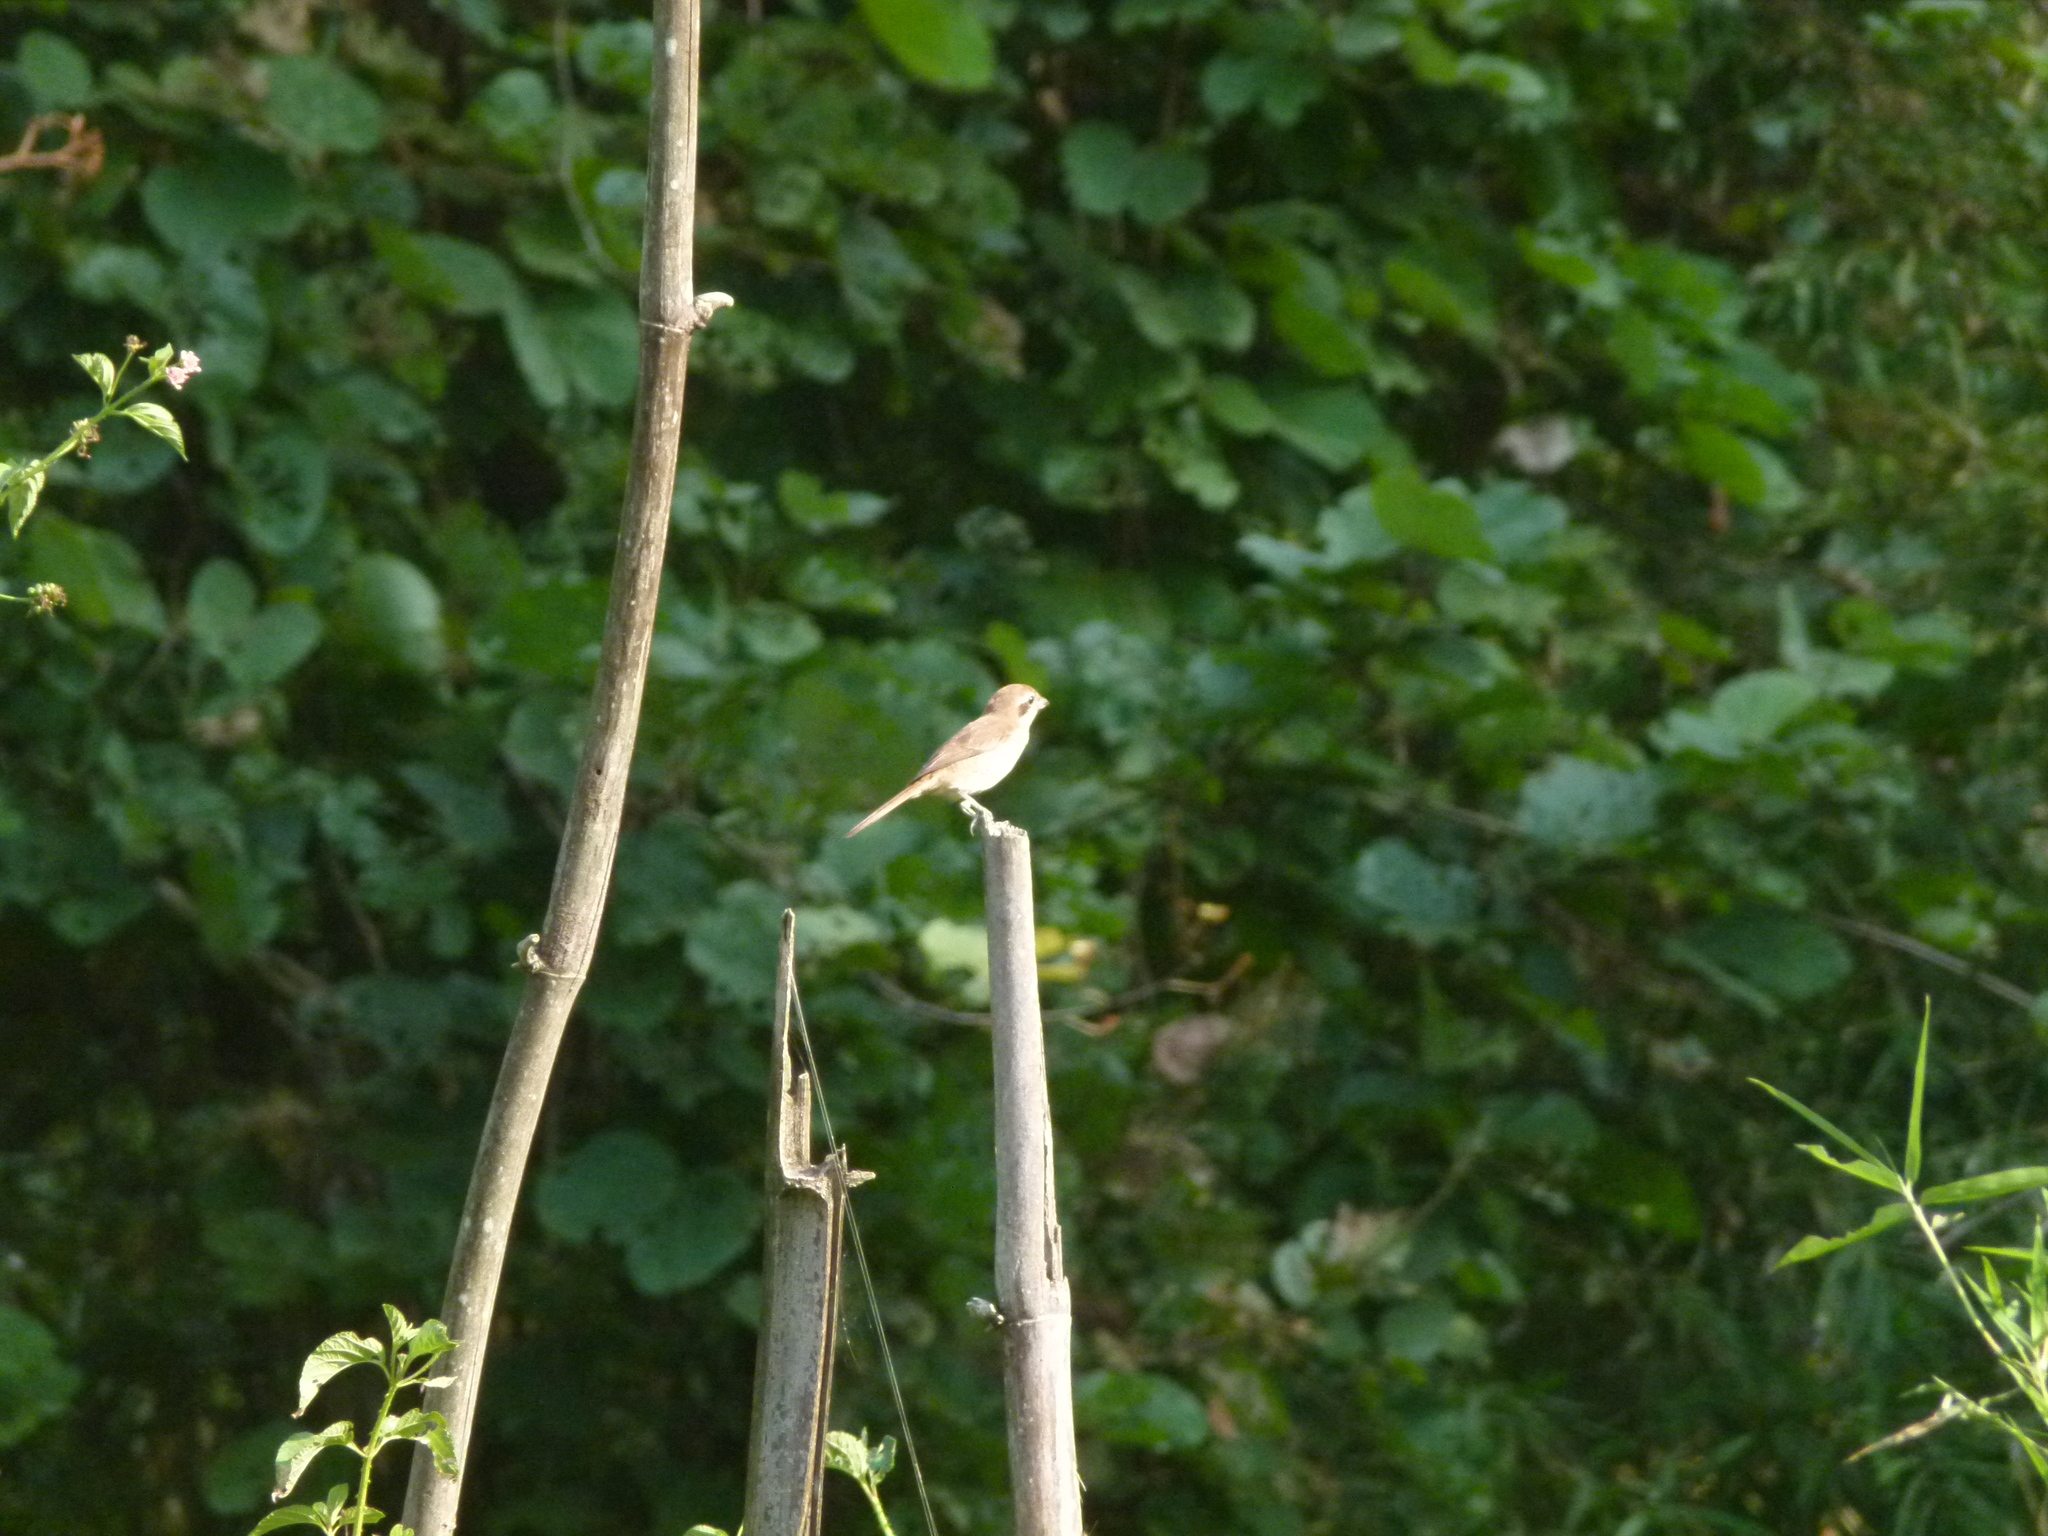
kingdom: Animalia
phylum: Chordata
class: Aves
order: Passeriformes
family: Laniidae
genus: Lanius
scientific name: Lanius cristatus
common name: Brown shrike
